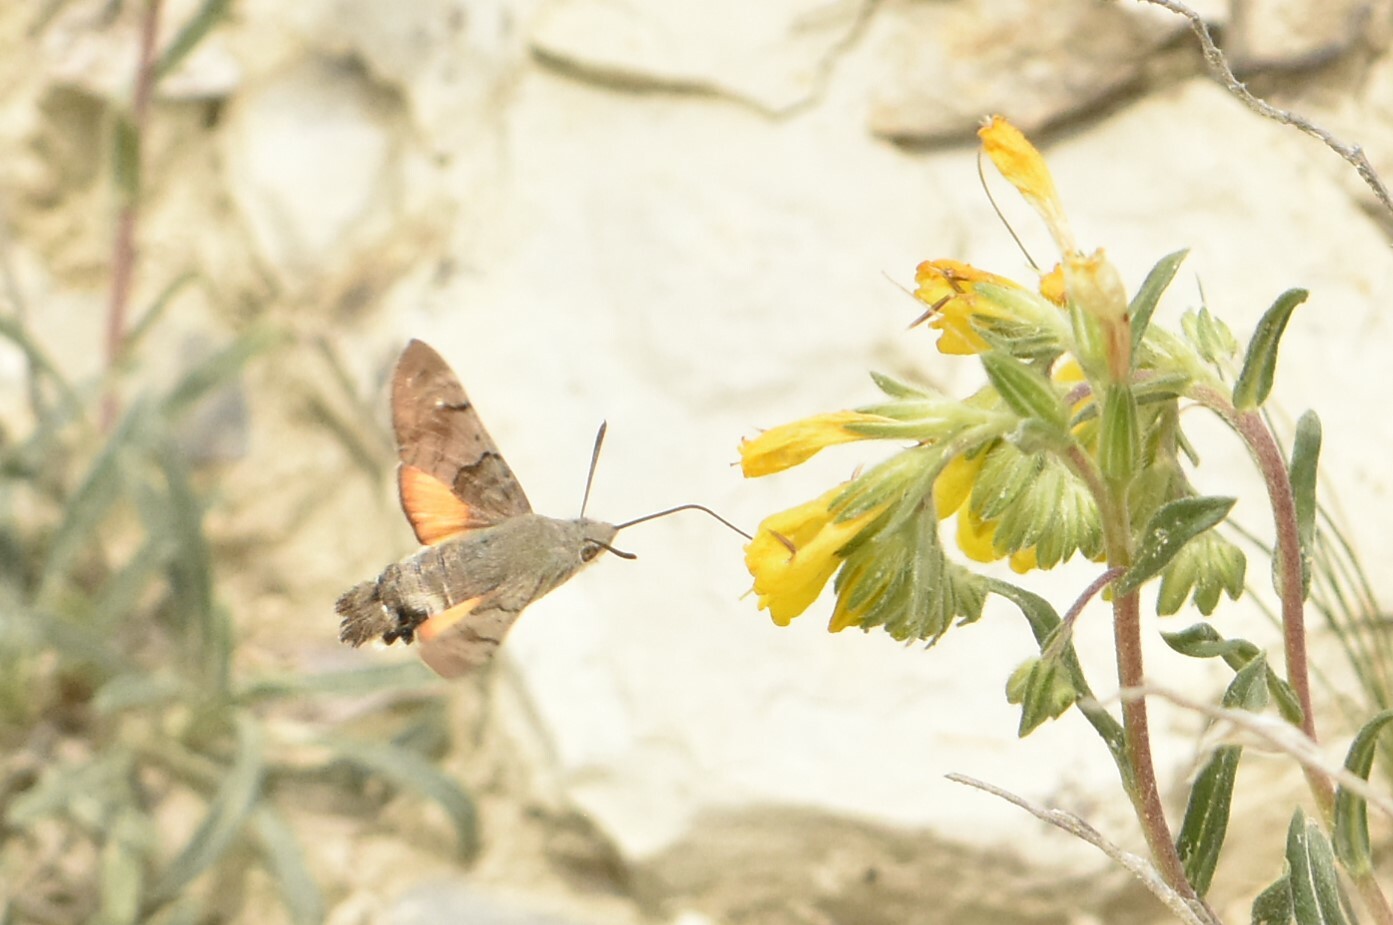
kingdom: Animalia
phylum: Arthropoda
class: Insecta
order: Lepidoptera
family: Sphingidae
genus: Macroglossum
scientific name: Macroglossum stellatarum
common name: Humming-bird hawk-moth
